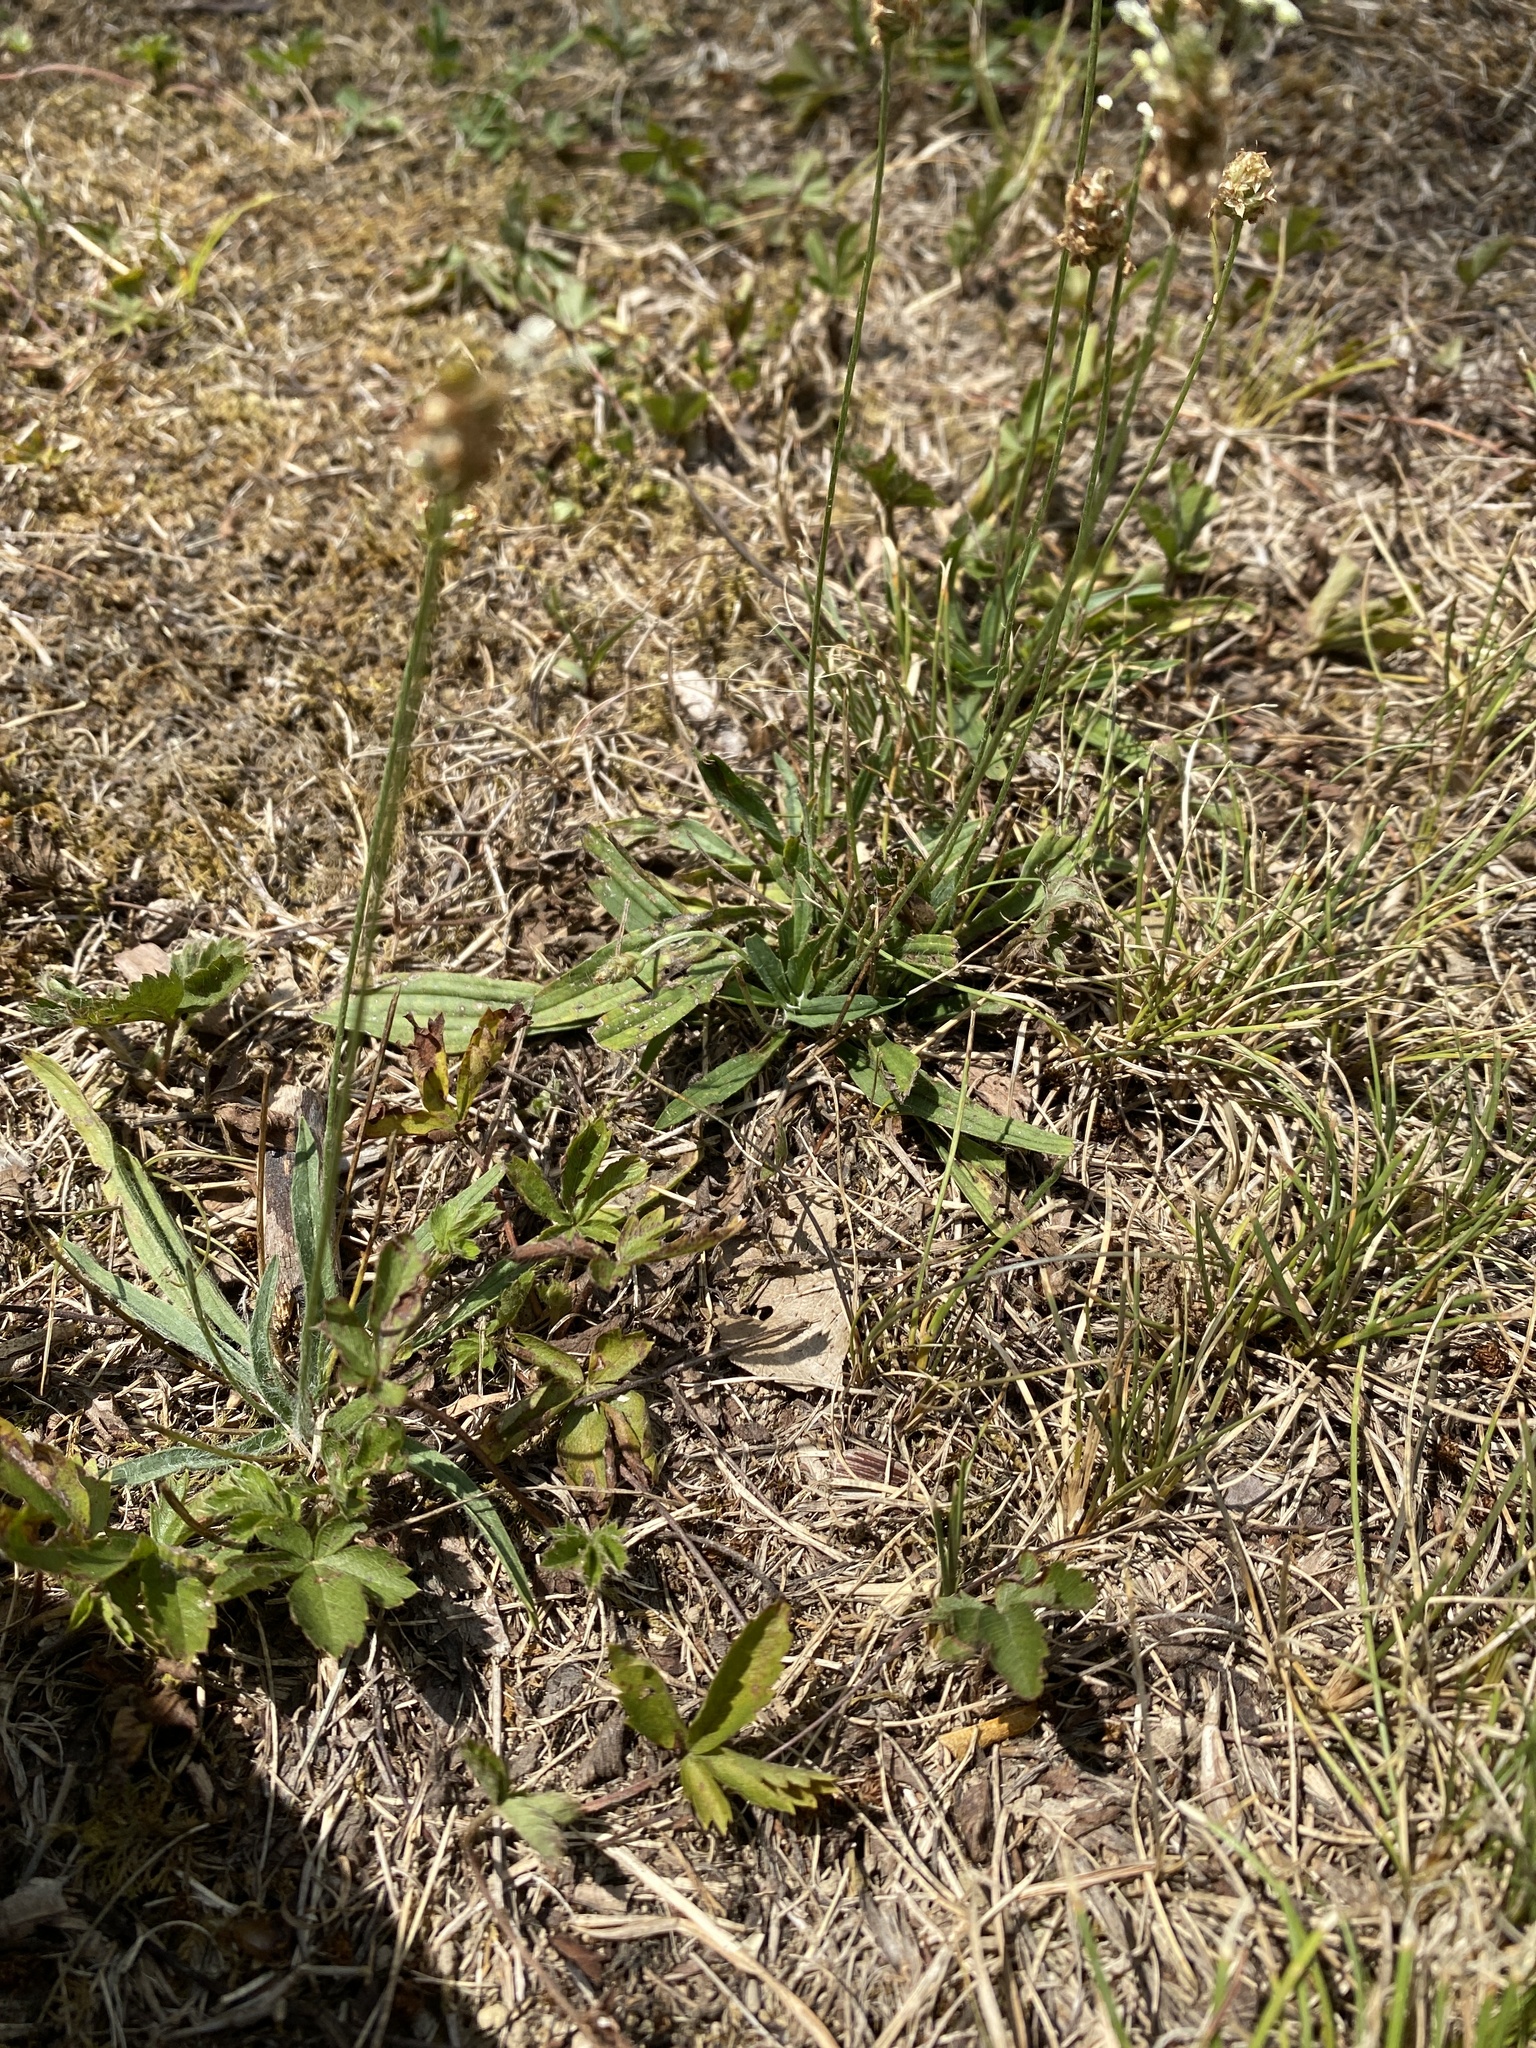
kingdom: Plantae
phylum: Tracheophyta
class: Magnoliopsida
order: Lamiales
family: Plantaginaceae
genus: Plantago
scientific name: Plantago lanceolata
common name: Ribwort plantain
